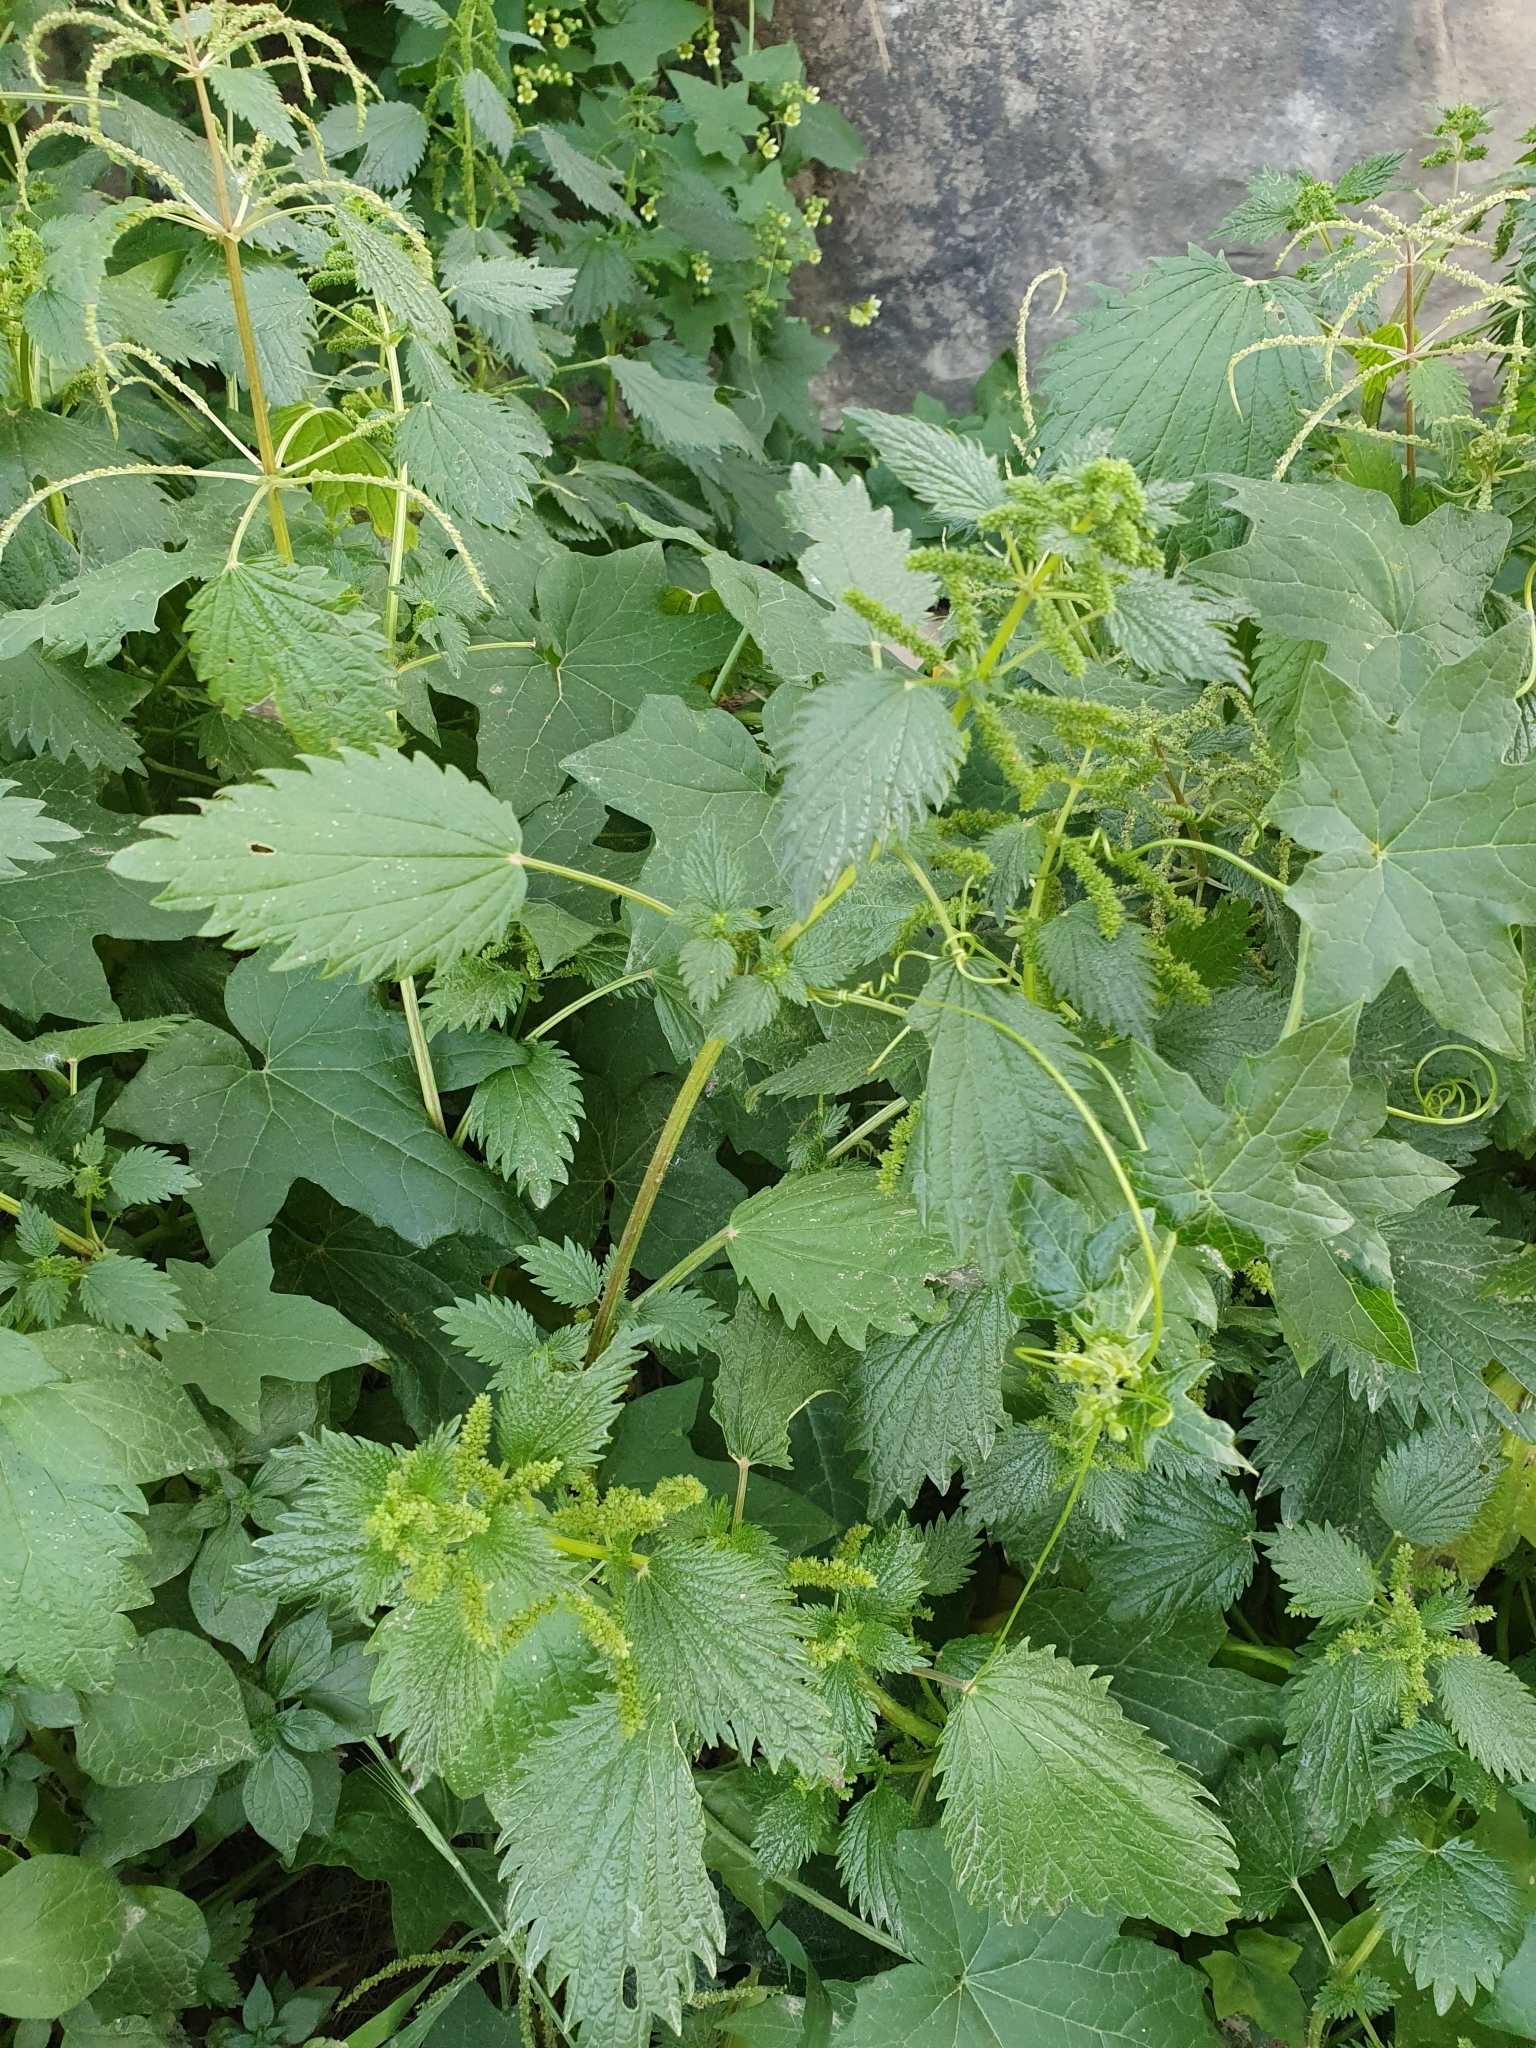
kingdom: Plantae
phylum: Tracheophyta
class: Magnoliopsida
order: Rosales
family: Urticaceae
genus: Urtica
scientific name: Urtica membranacea
